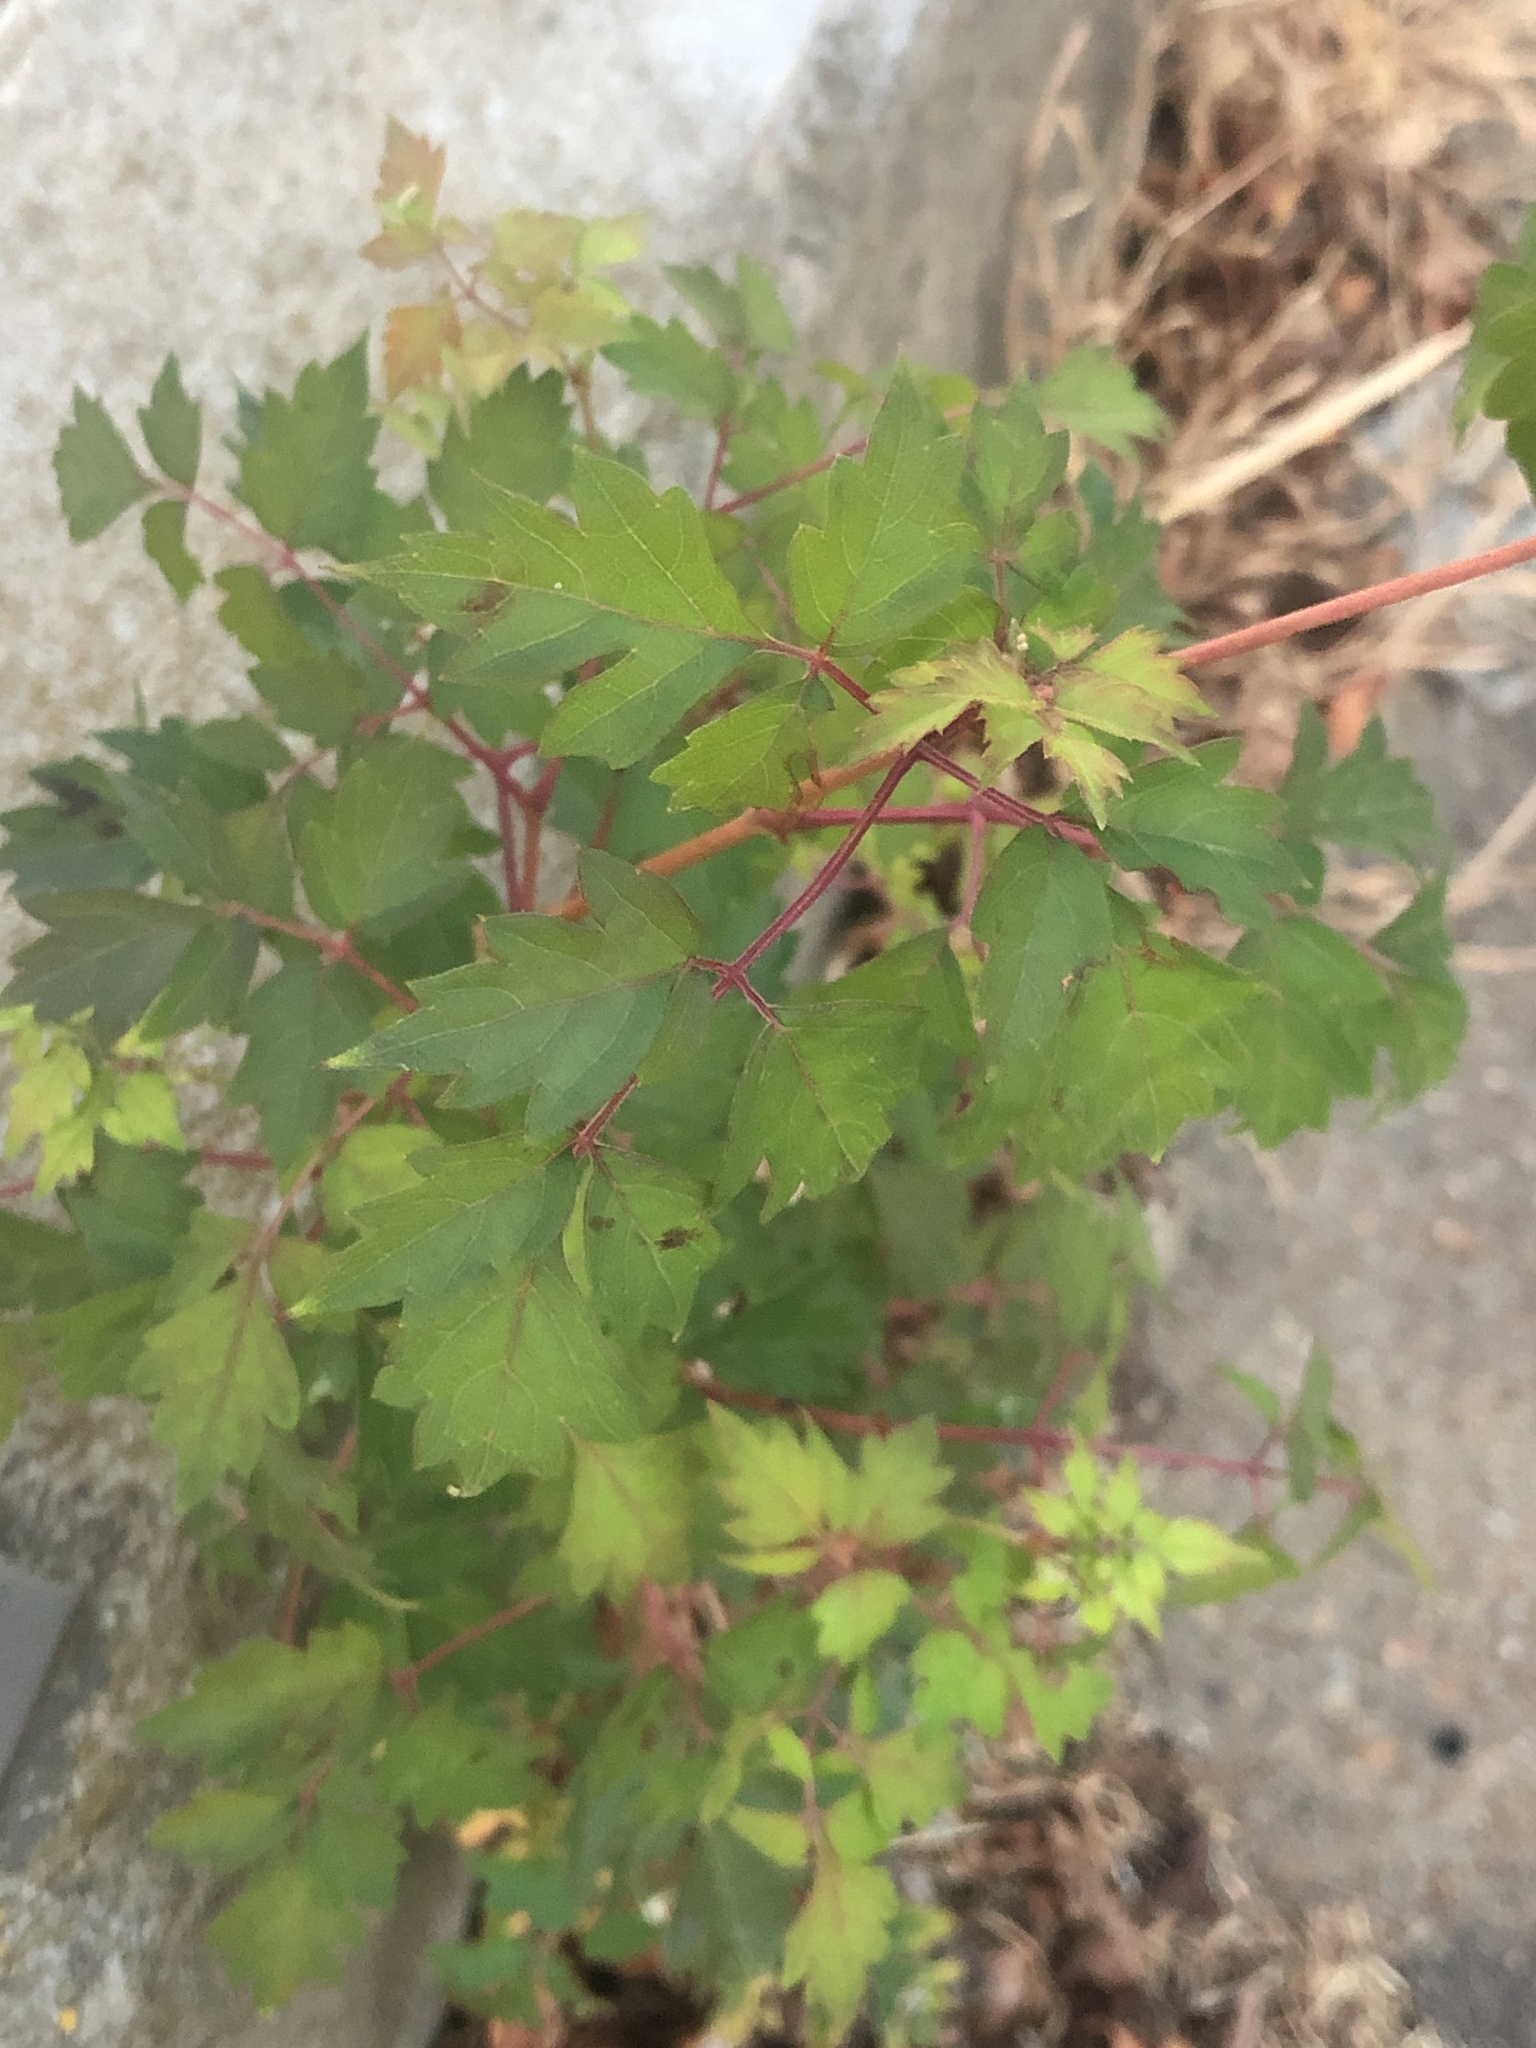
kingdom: Plantae
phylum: Tracheophyta
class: Magnoliopsida
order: Vitales
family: Vitaceae
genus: Nekemias
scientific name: Nekemias arborea
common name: Peppervine
